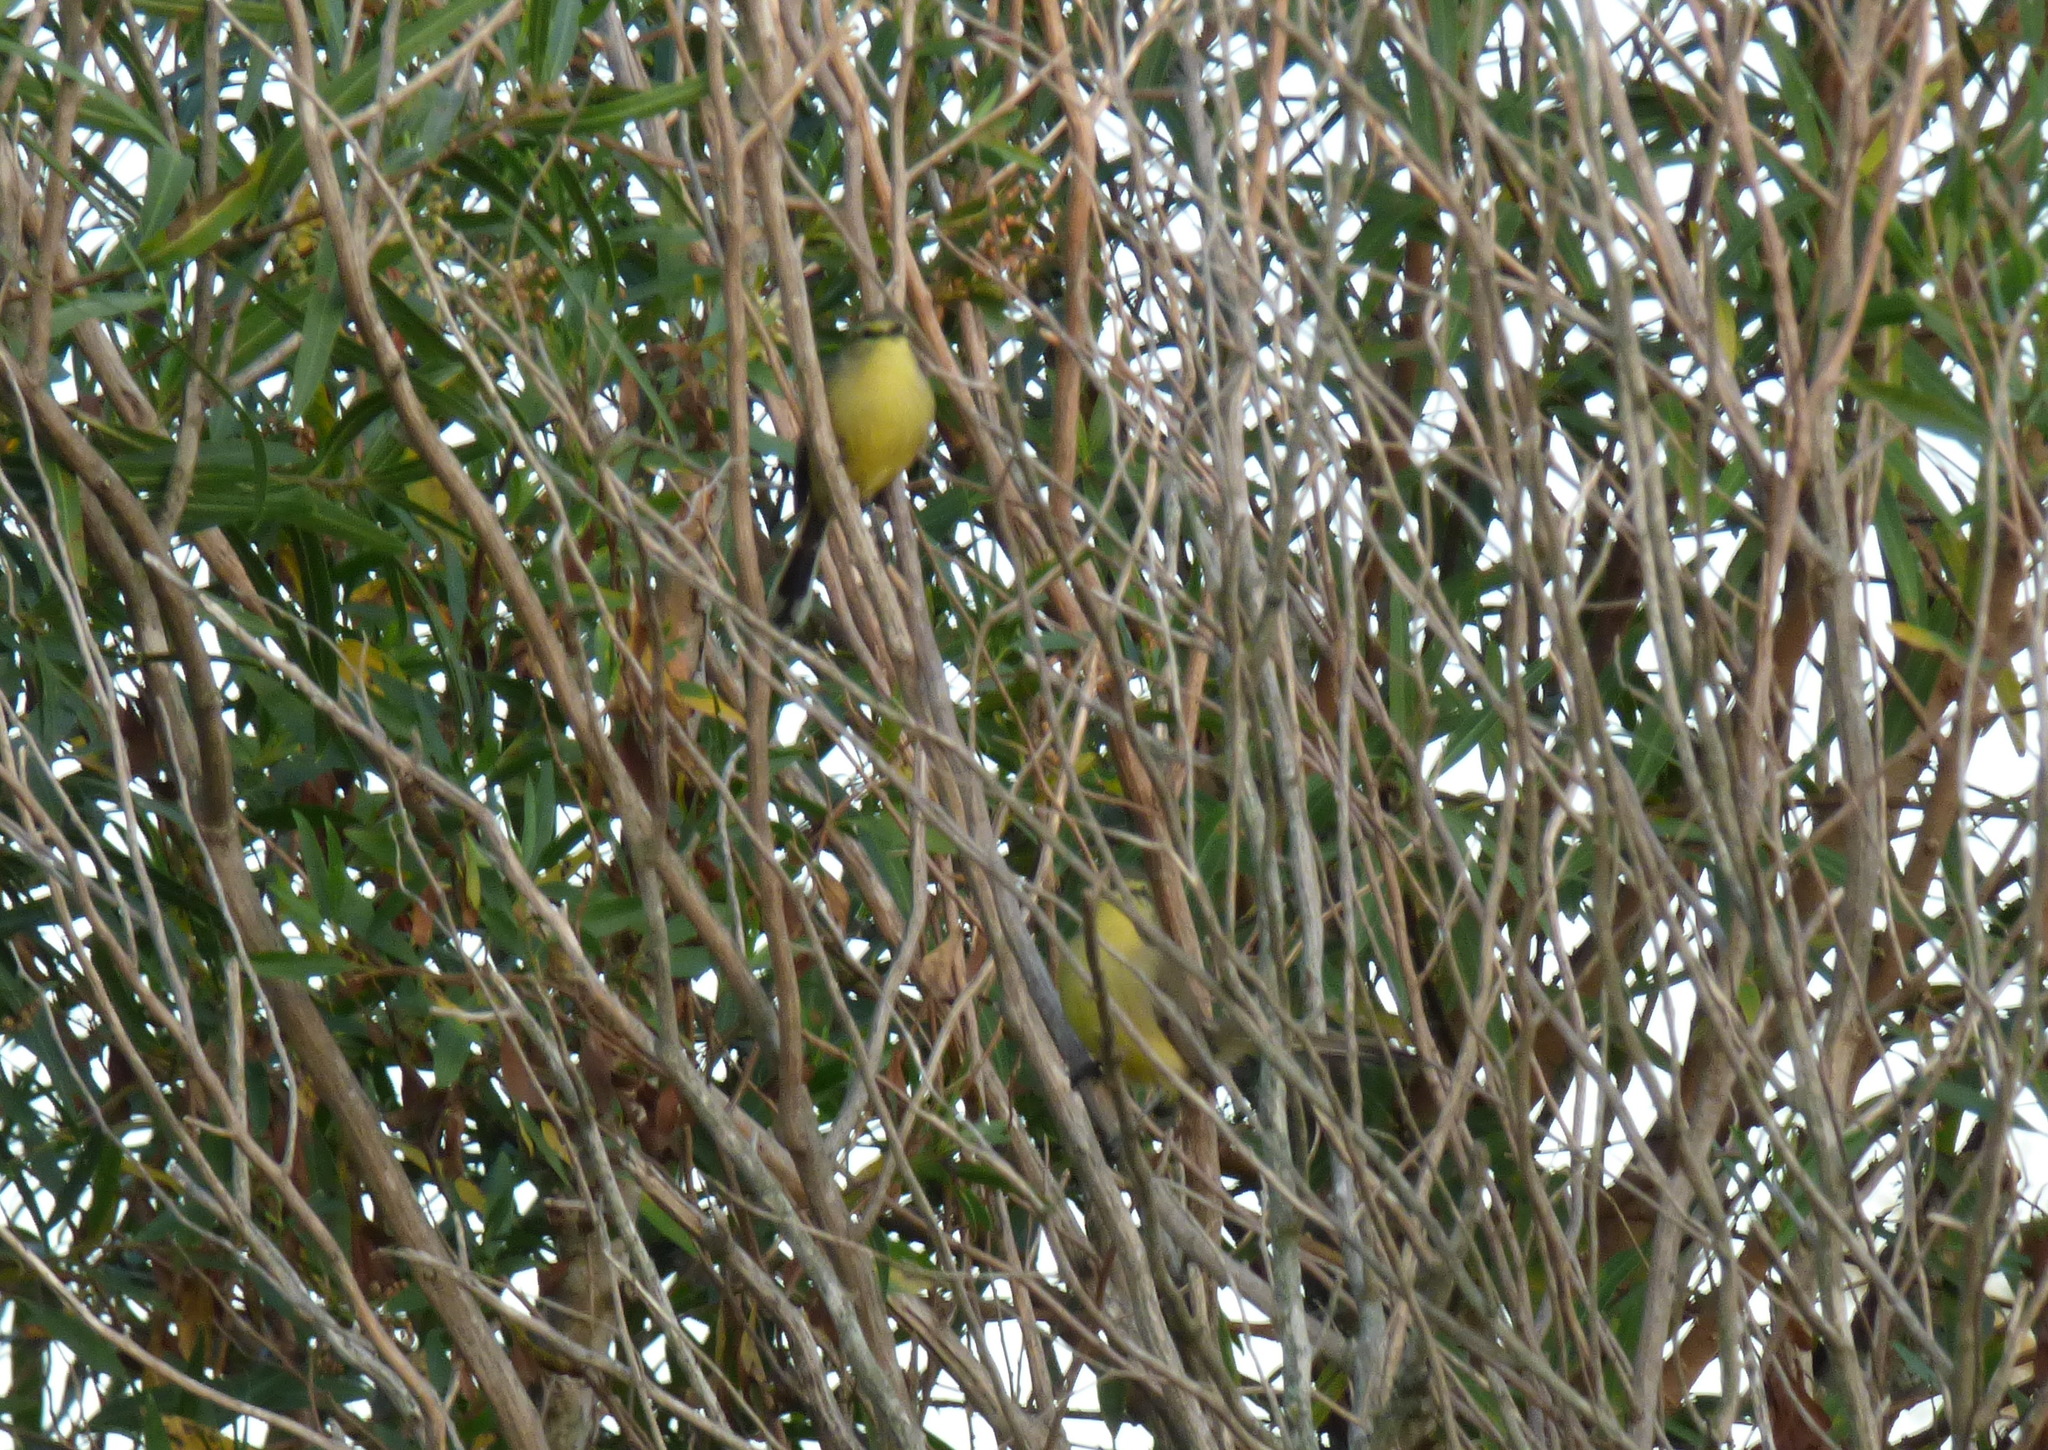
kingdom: Animalia
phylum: Chordata
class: Aves
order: Passeriformes
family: Tyrannidae
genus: Stigmatura
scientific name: Stigmatura budytoides
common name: Greater wagtail-tyrant
